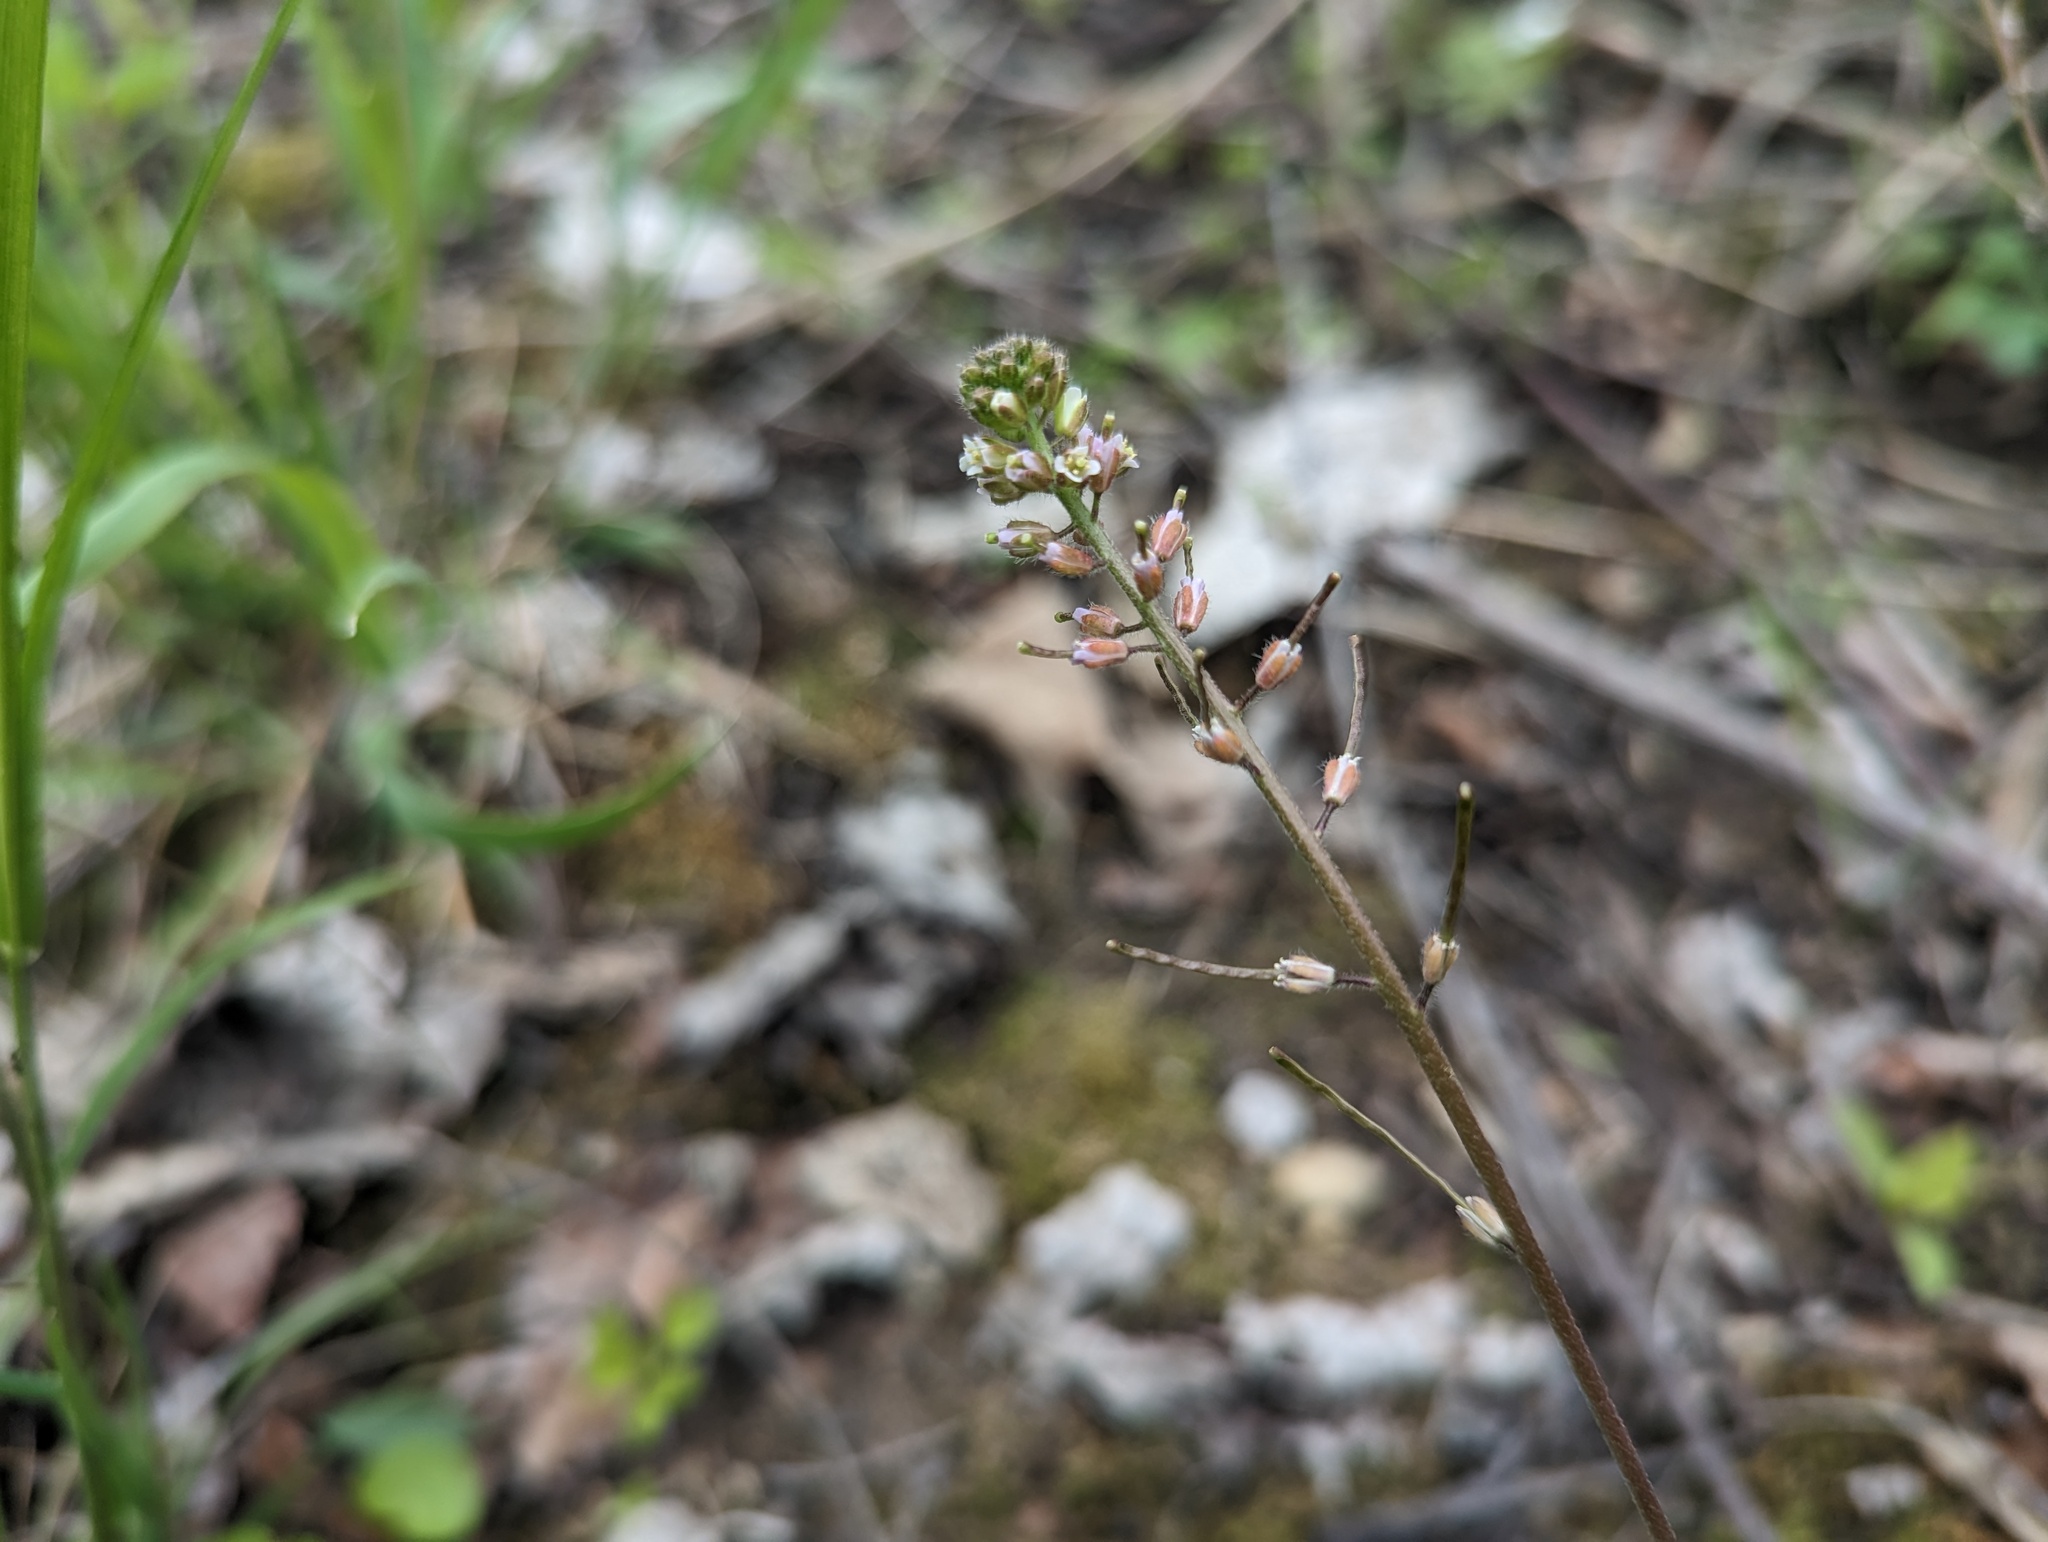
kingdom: Plantae
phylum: Tracheophyta
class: Magnoliopsida
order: Brassicales
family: Brassicaceae
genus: Borodinia
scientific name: Borodinia dentata
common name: Short's rockcress
